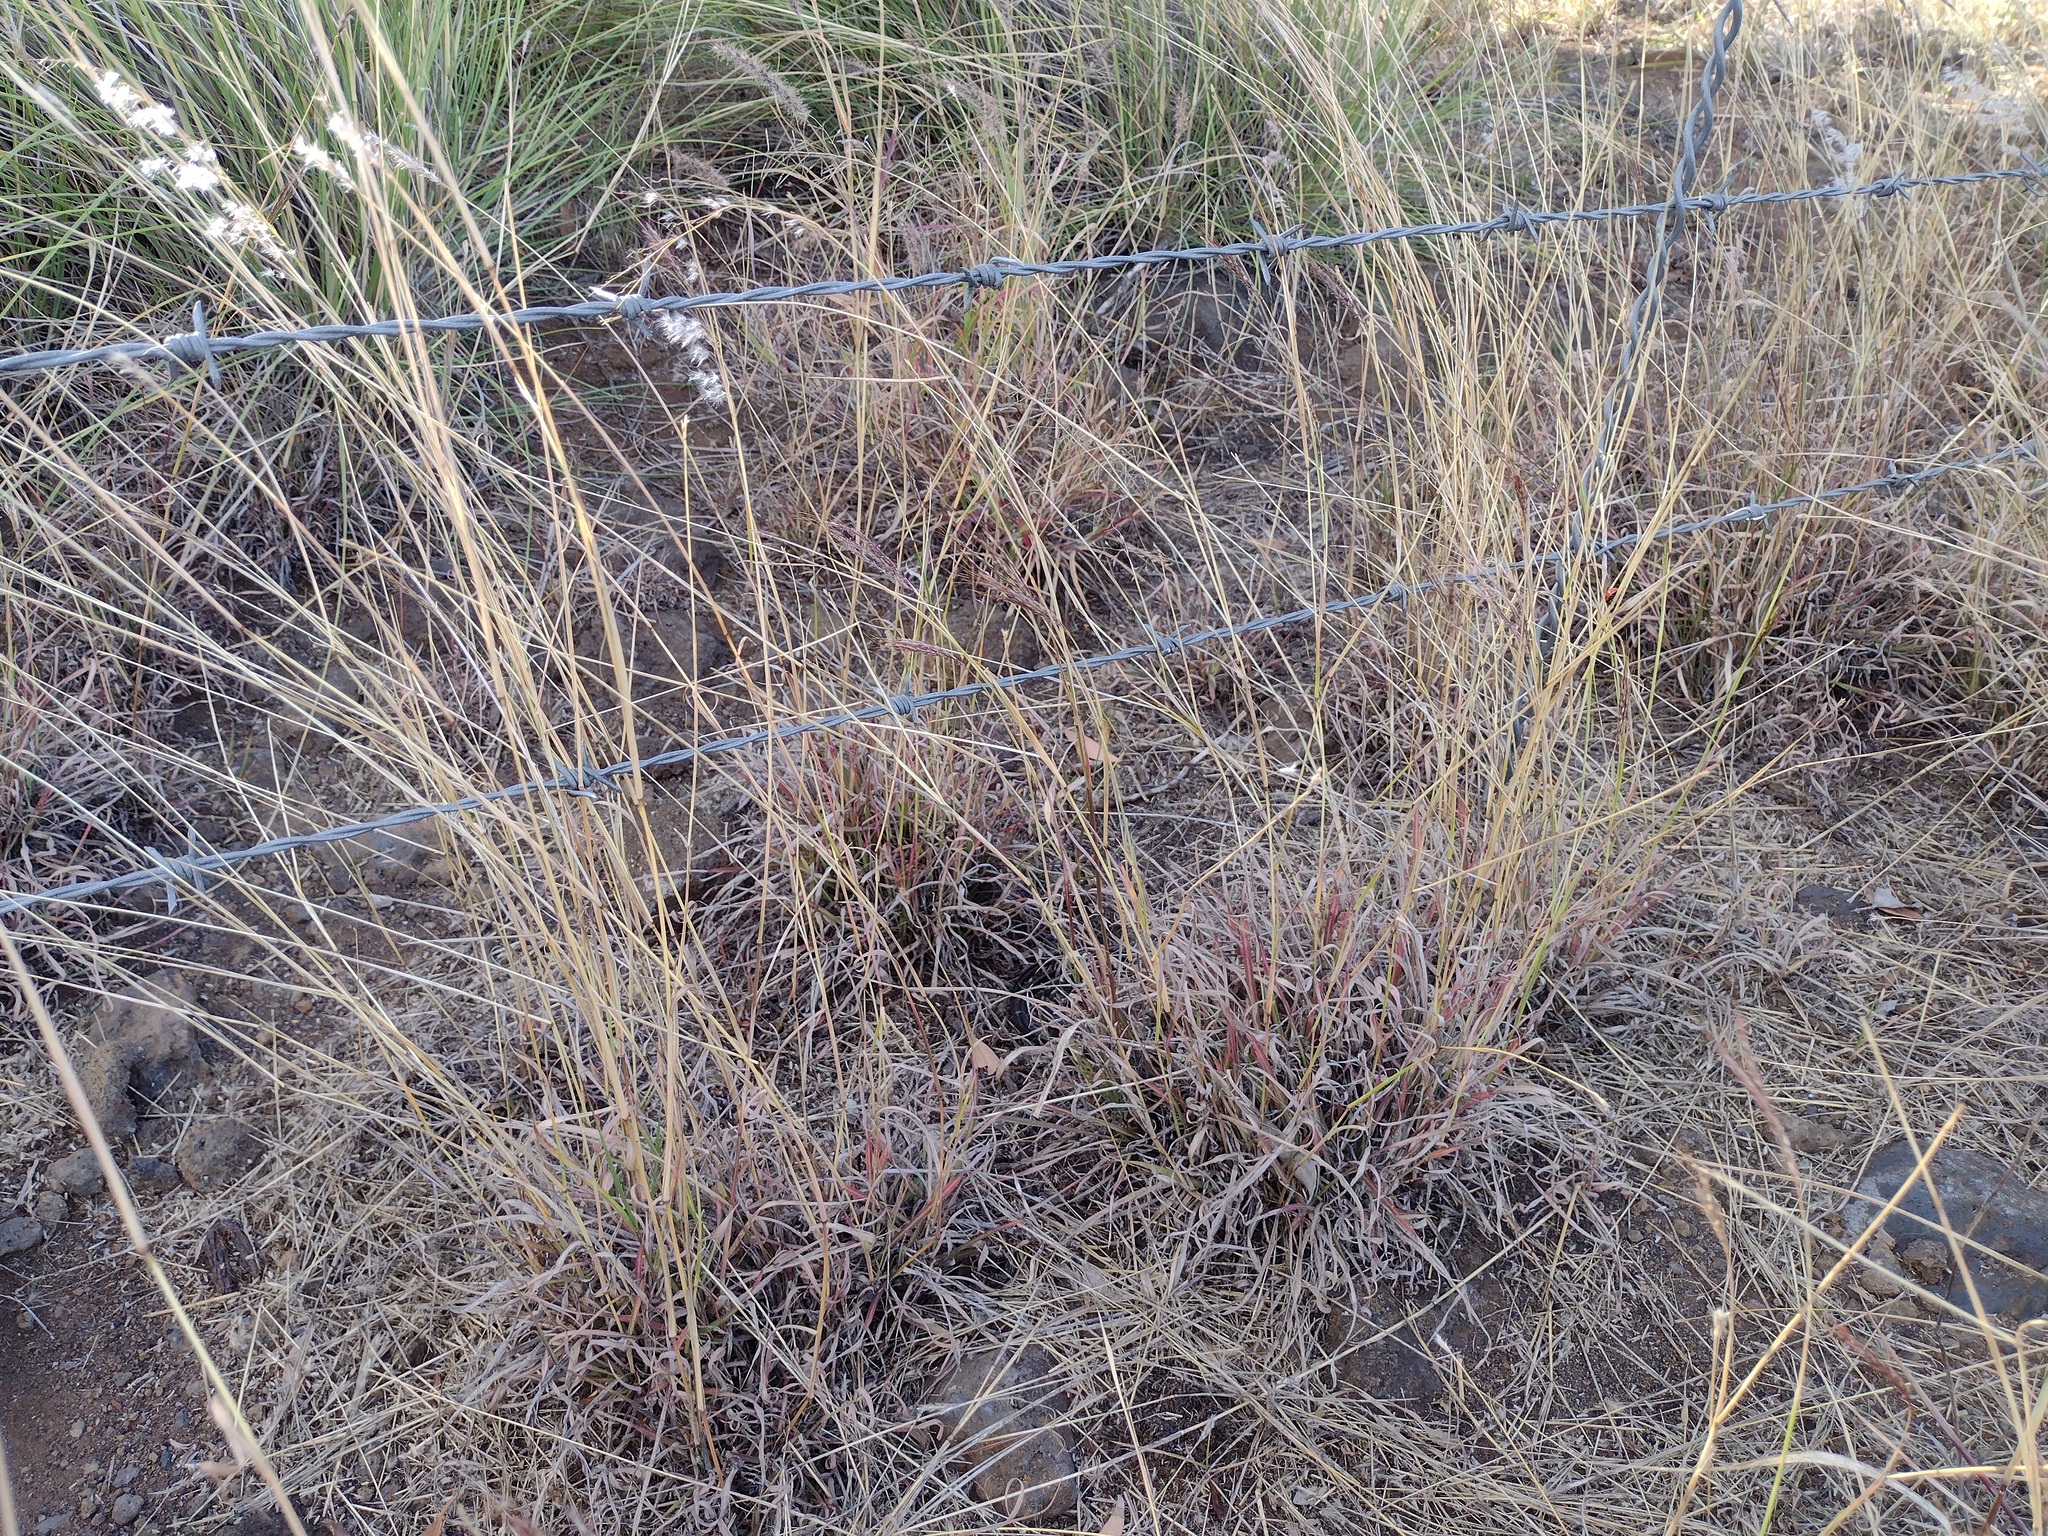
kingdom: Plantae
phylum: Tracheophyta
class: Liliopsida
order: Poales
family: Poaceae
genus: Melinis
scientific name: Melinis repens
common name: Rose natal grass
